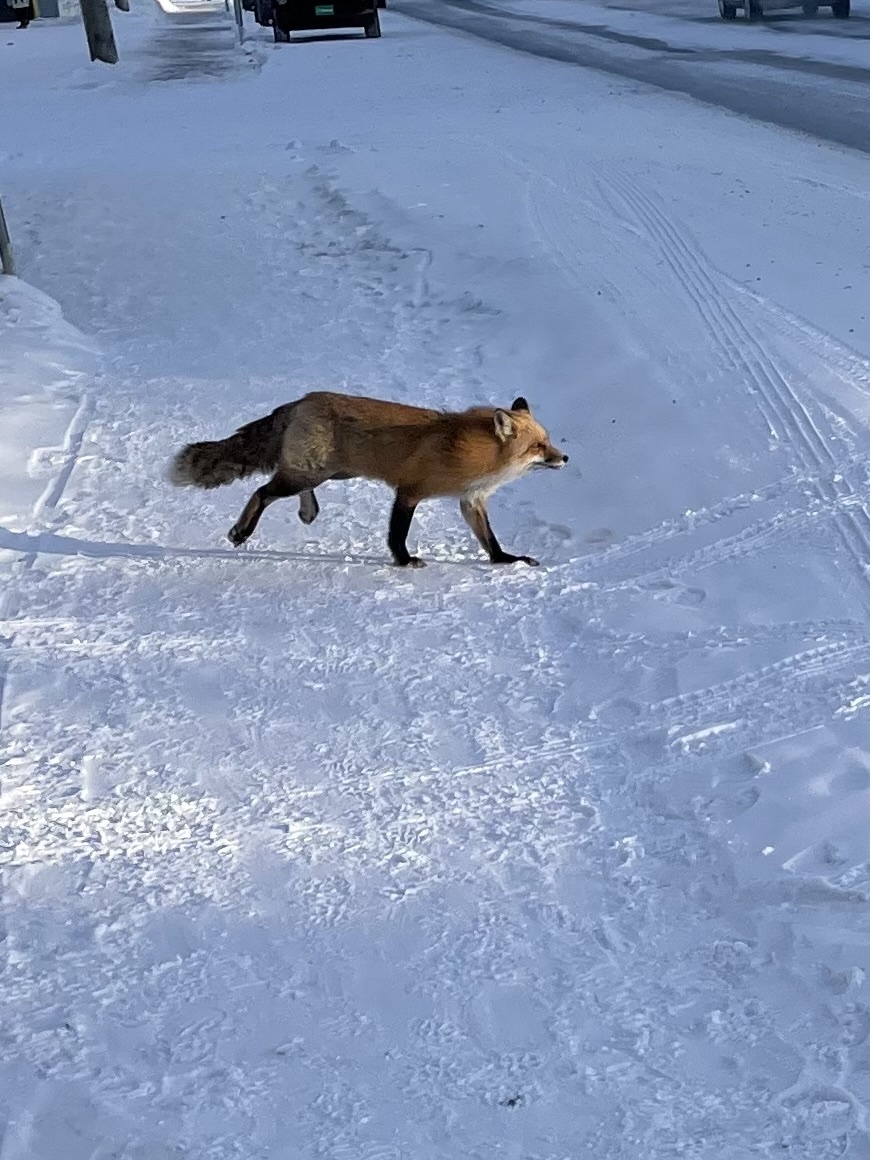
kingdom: Animalia
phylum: Chordata
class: Mammalia
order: Carnivora
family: Canidae
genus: Vulpes
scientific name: Vulpes vulpes
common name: Red fox
